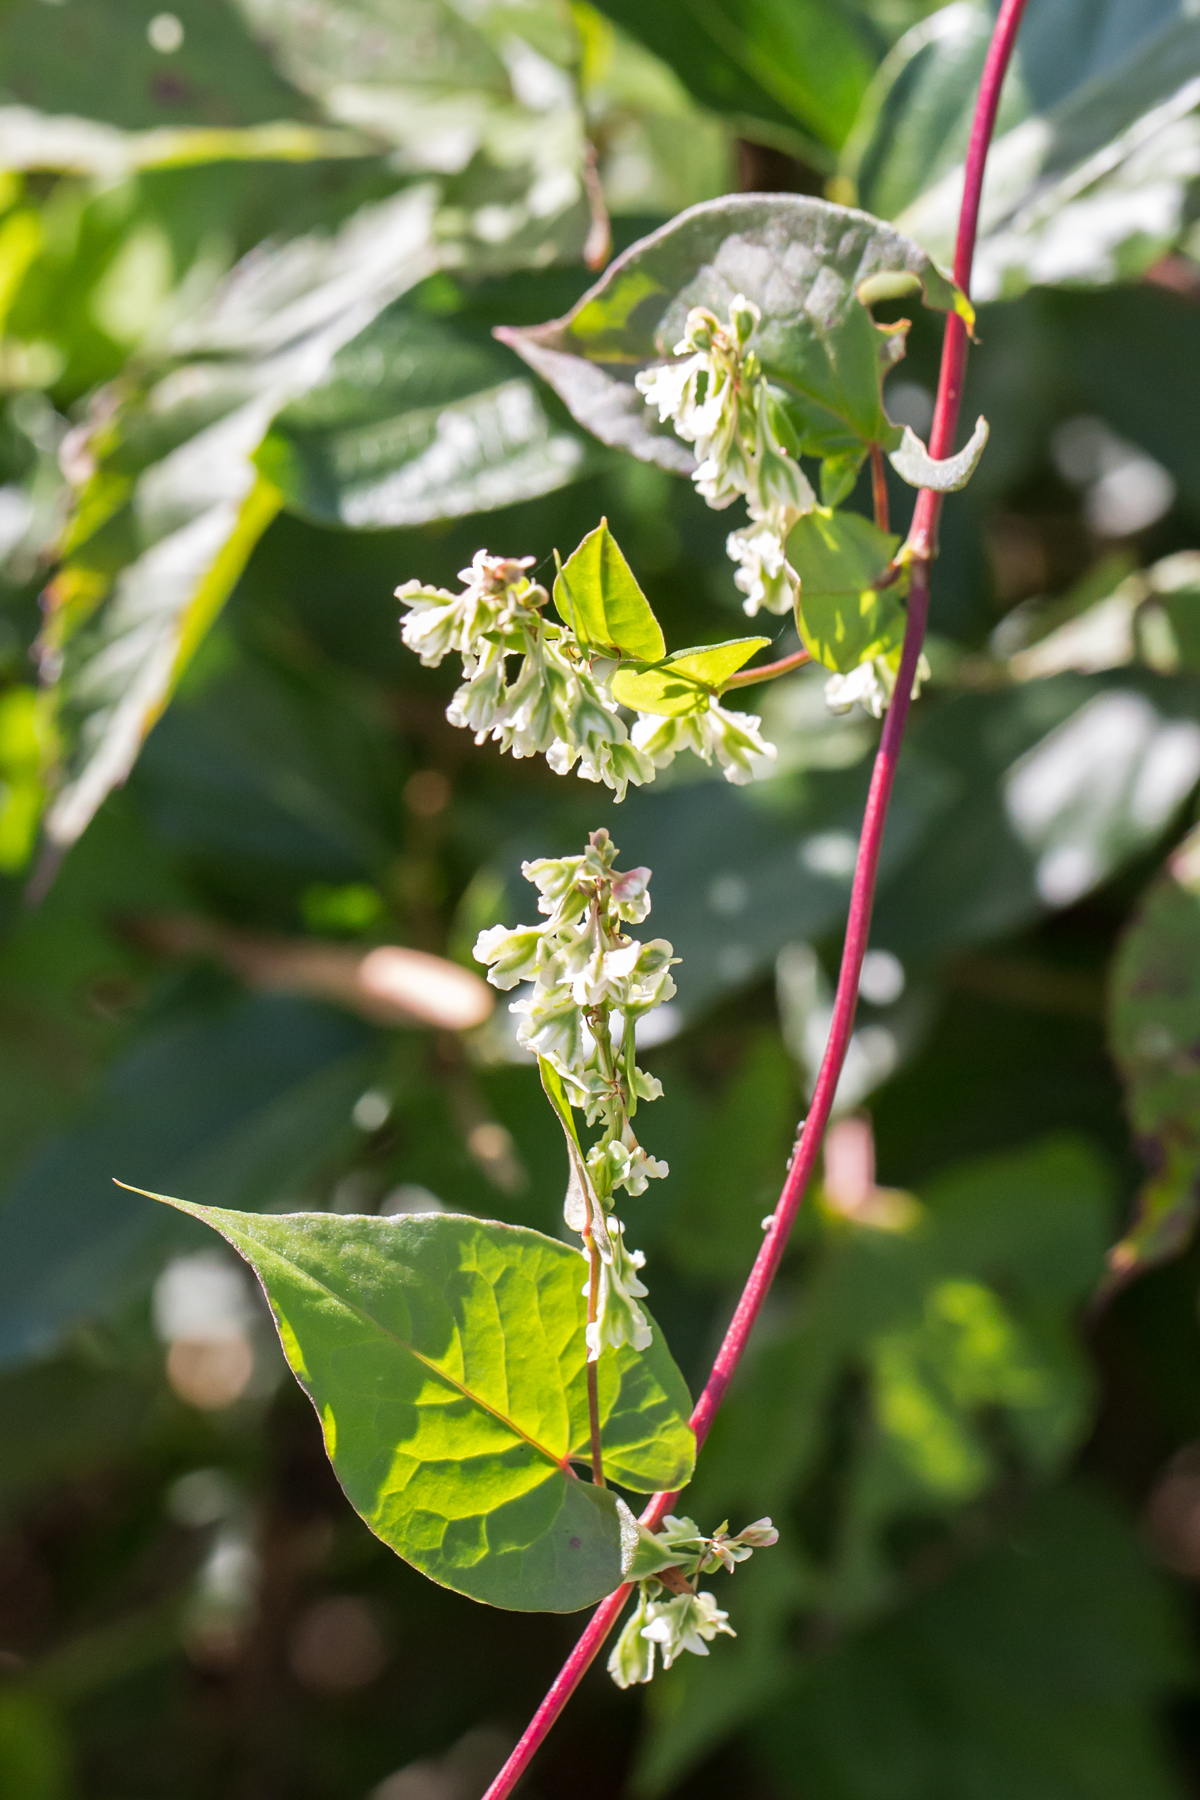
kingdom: Plantae
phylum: Tracheophyta
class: Magnoliopsida
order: Caryophyllales
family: Polygonaceae
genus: Fallopia
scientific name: Fallopia scandens
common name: Climbing false buckwheat
